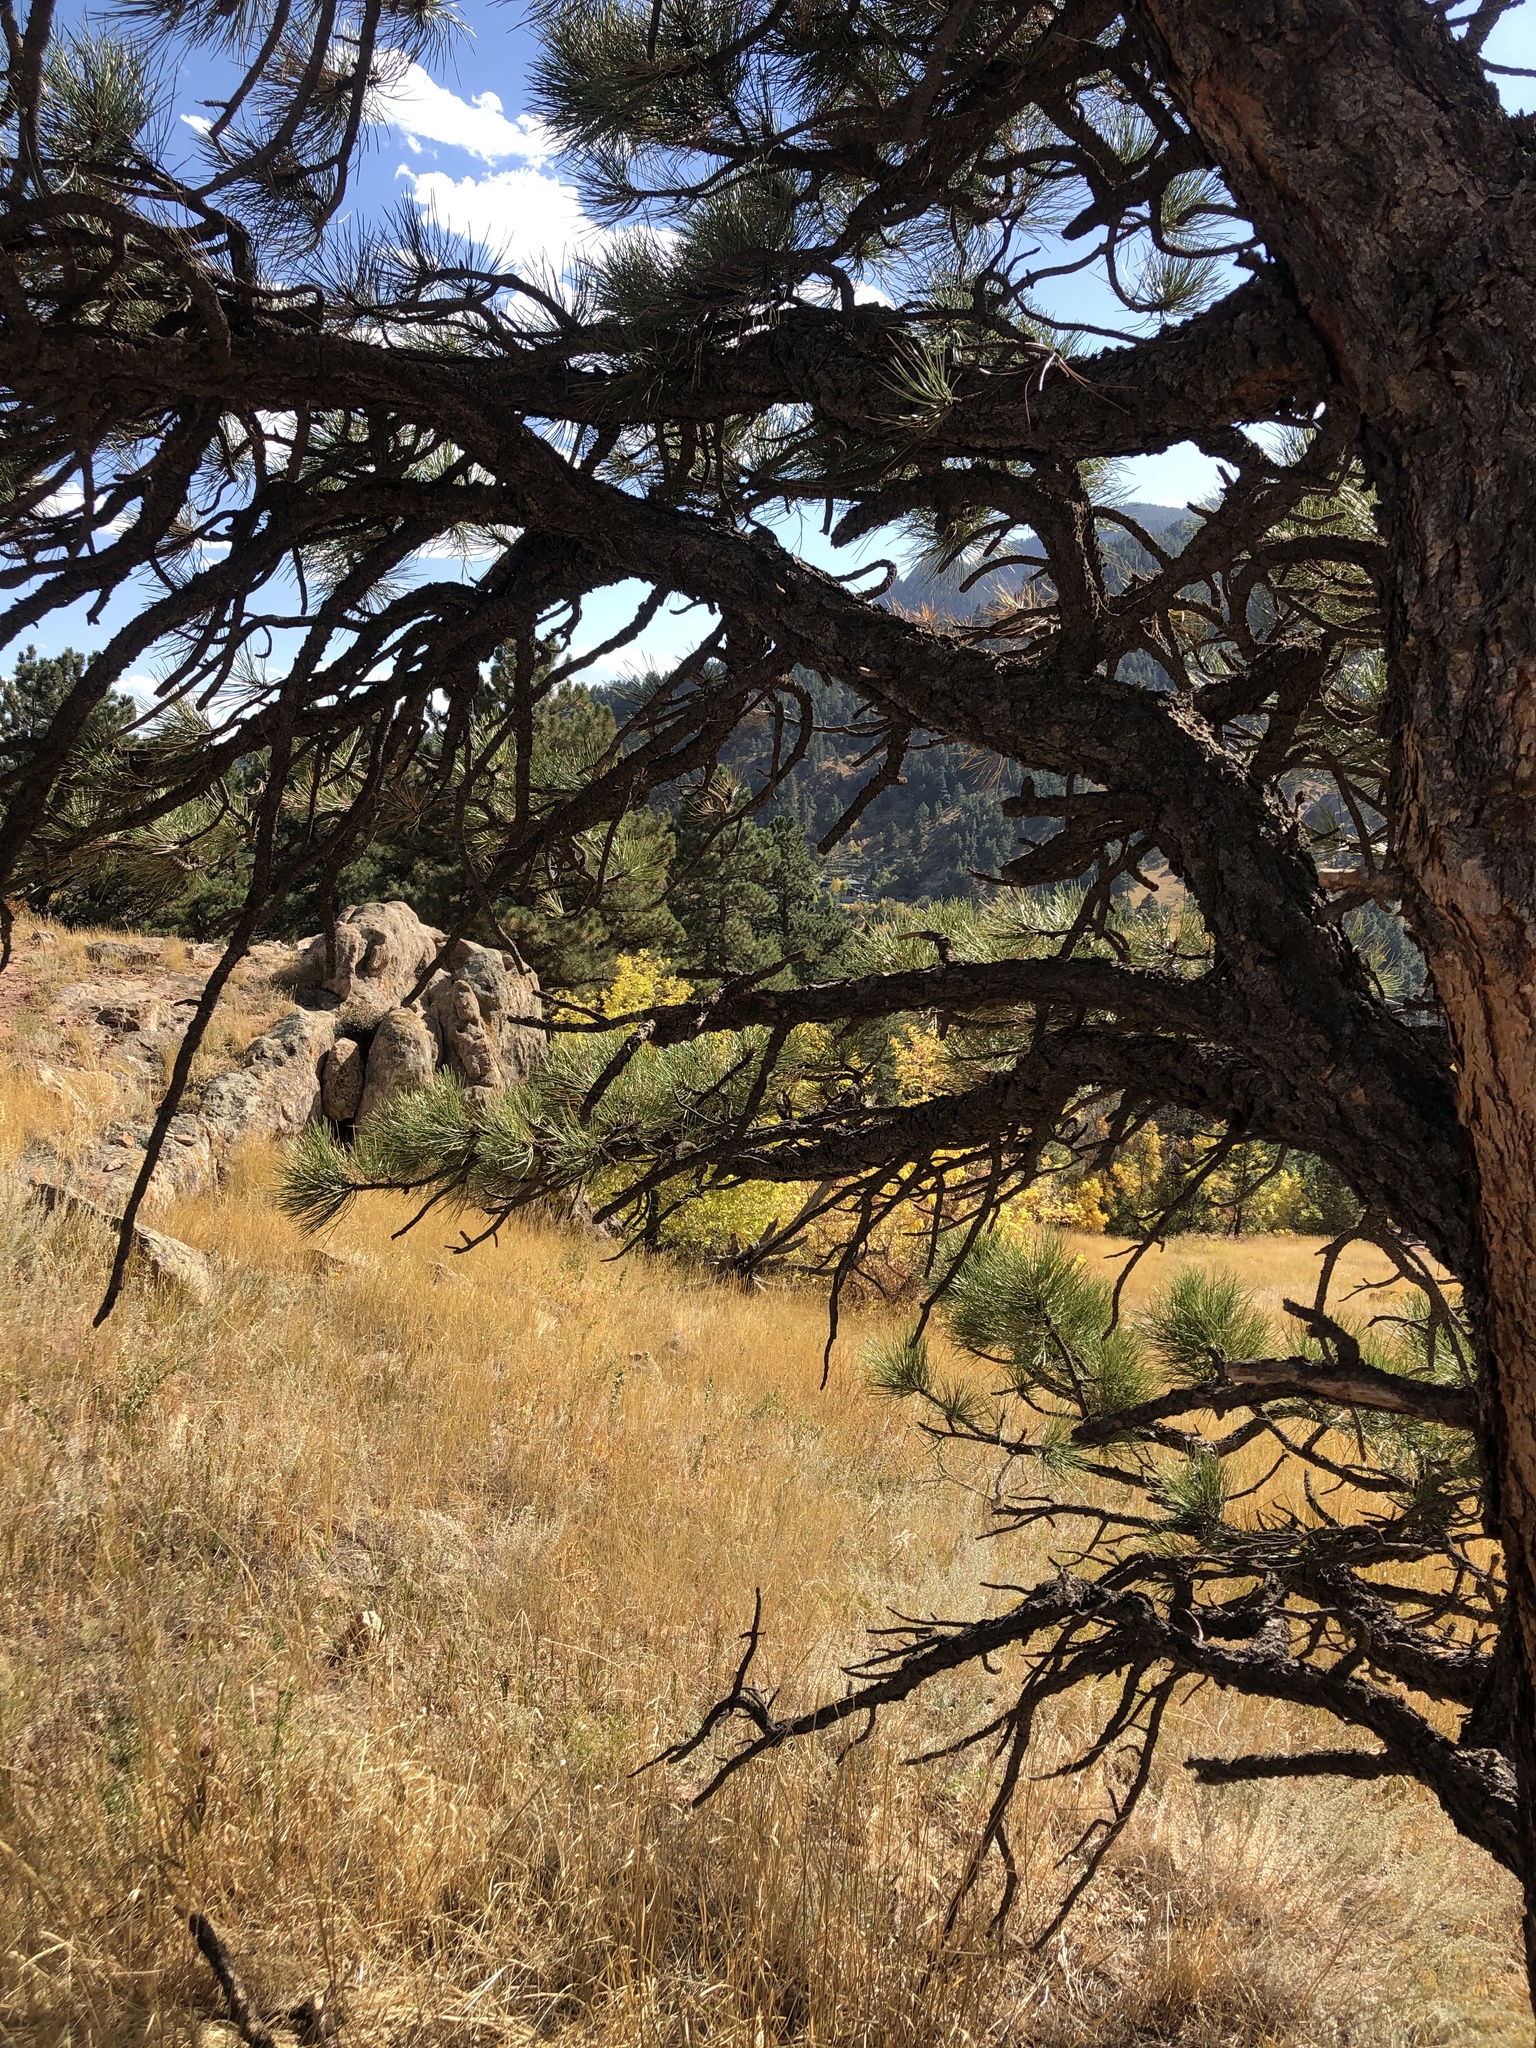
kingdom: Plantae
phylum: Tracheophyta
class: Pinopsida
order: Pinales
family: Pinaceae
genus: Pinus
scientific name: Pinus ponderosa
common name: Western yellow-pine
